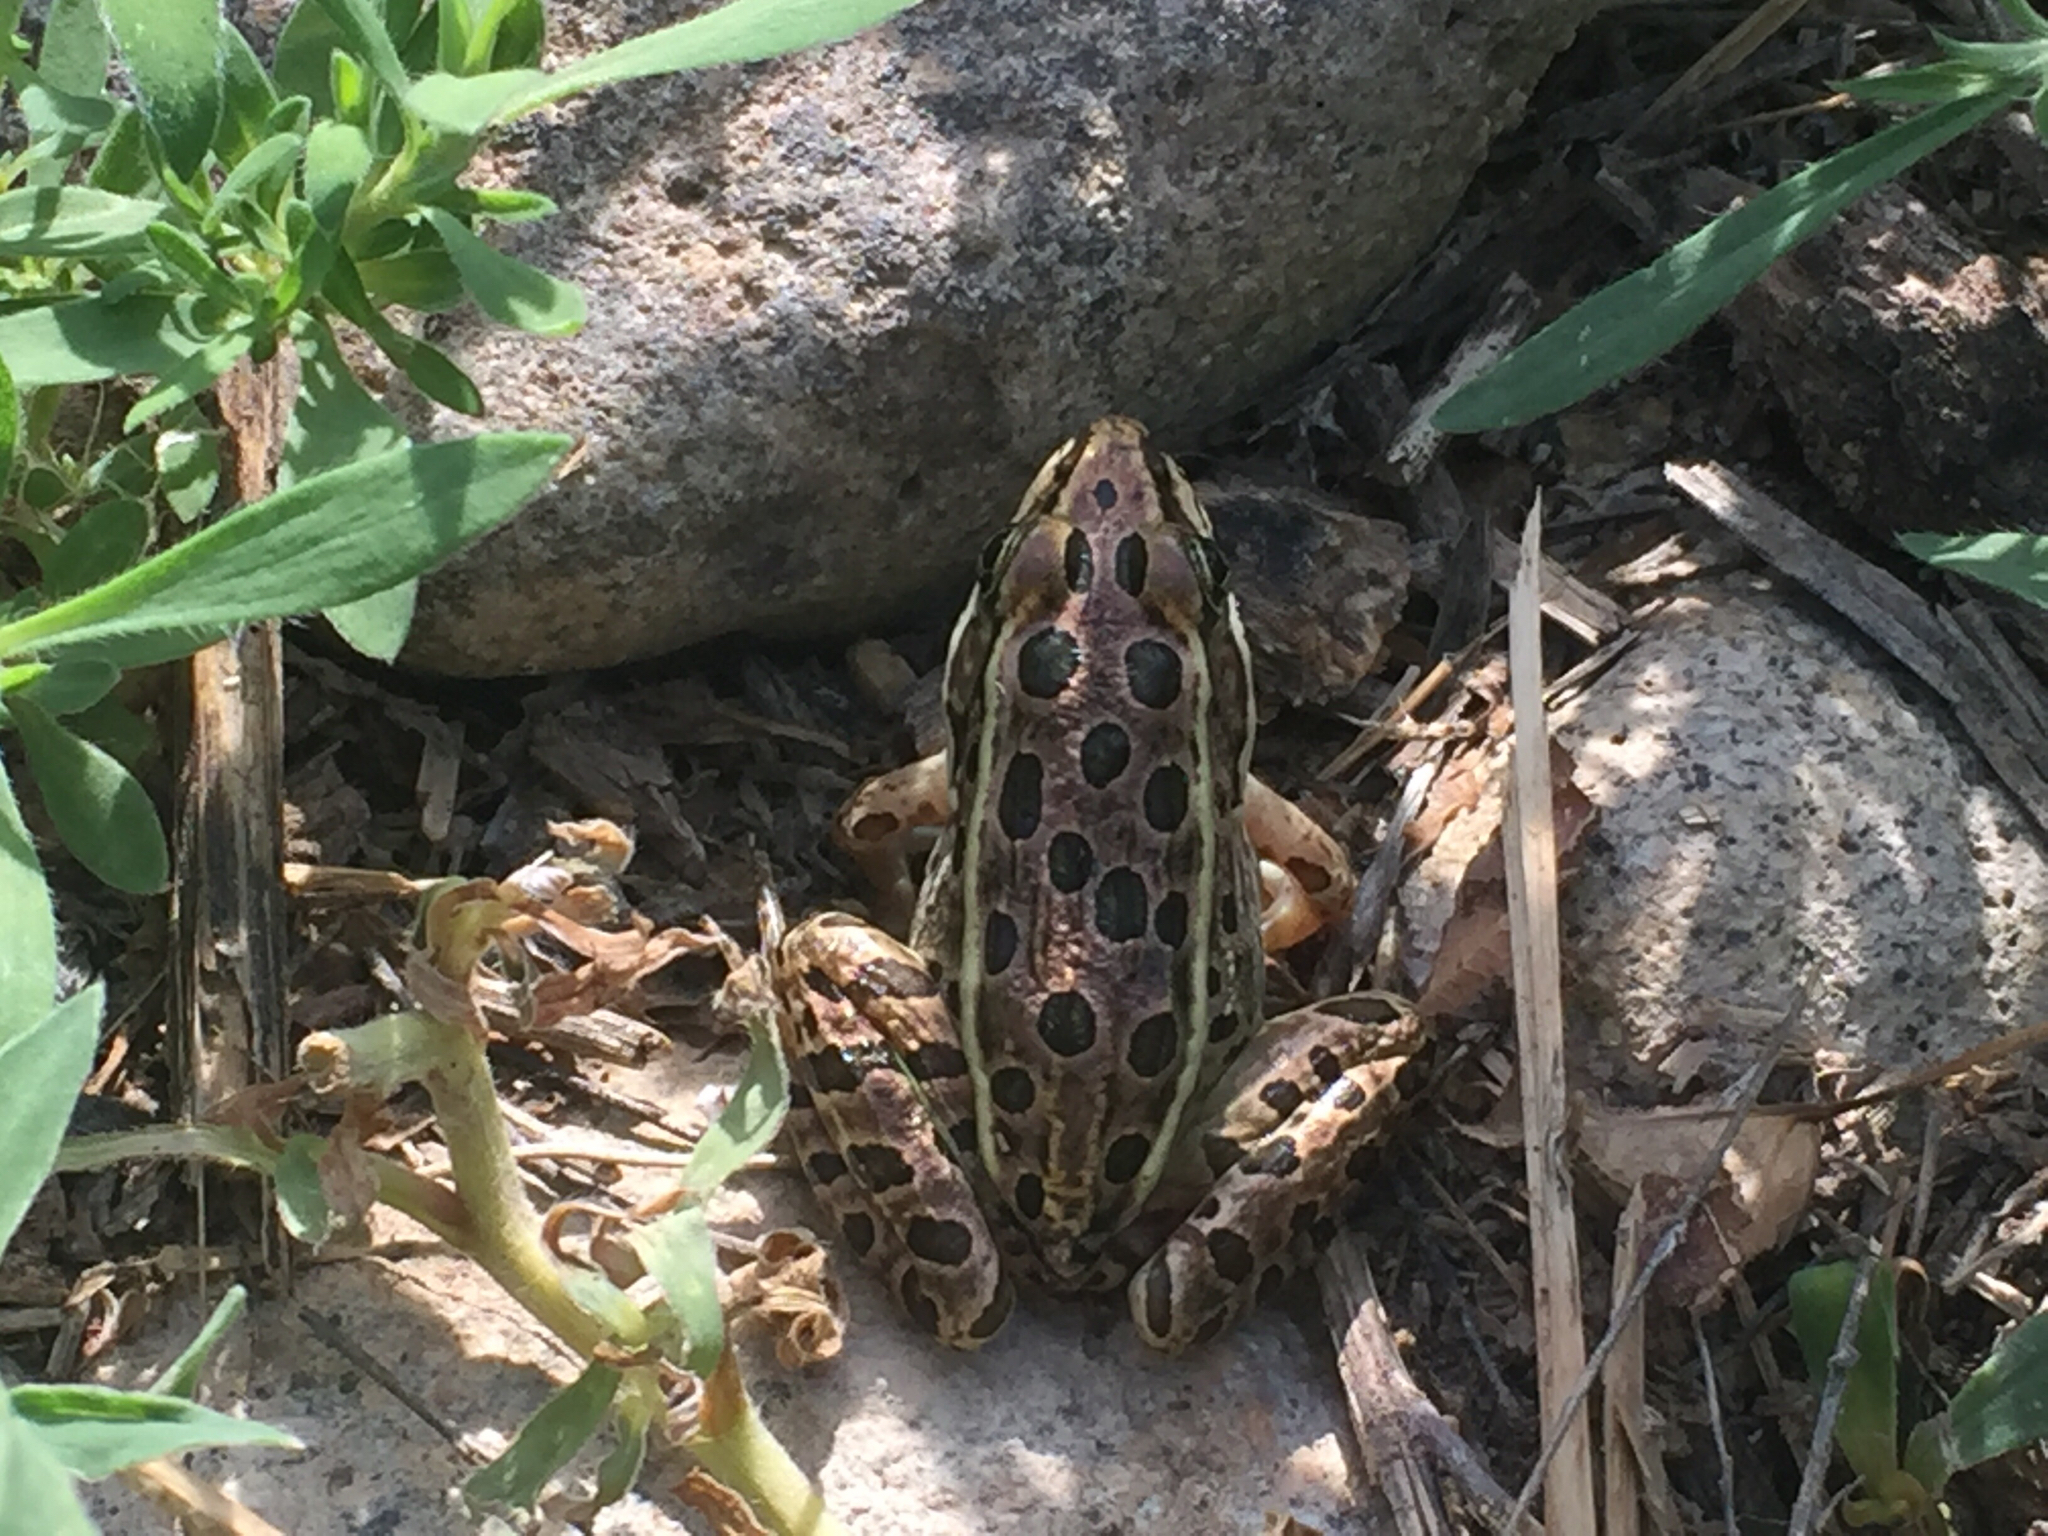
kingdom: Animalia
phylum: Chordata
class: Amphibia
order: Anura
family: Ranidae
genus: Lithobates
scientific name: Lithobates pipiens
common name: Northern leopard frog
